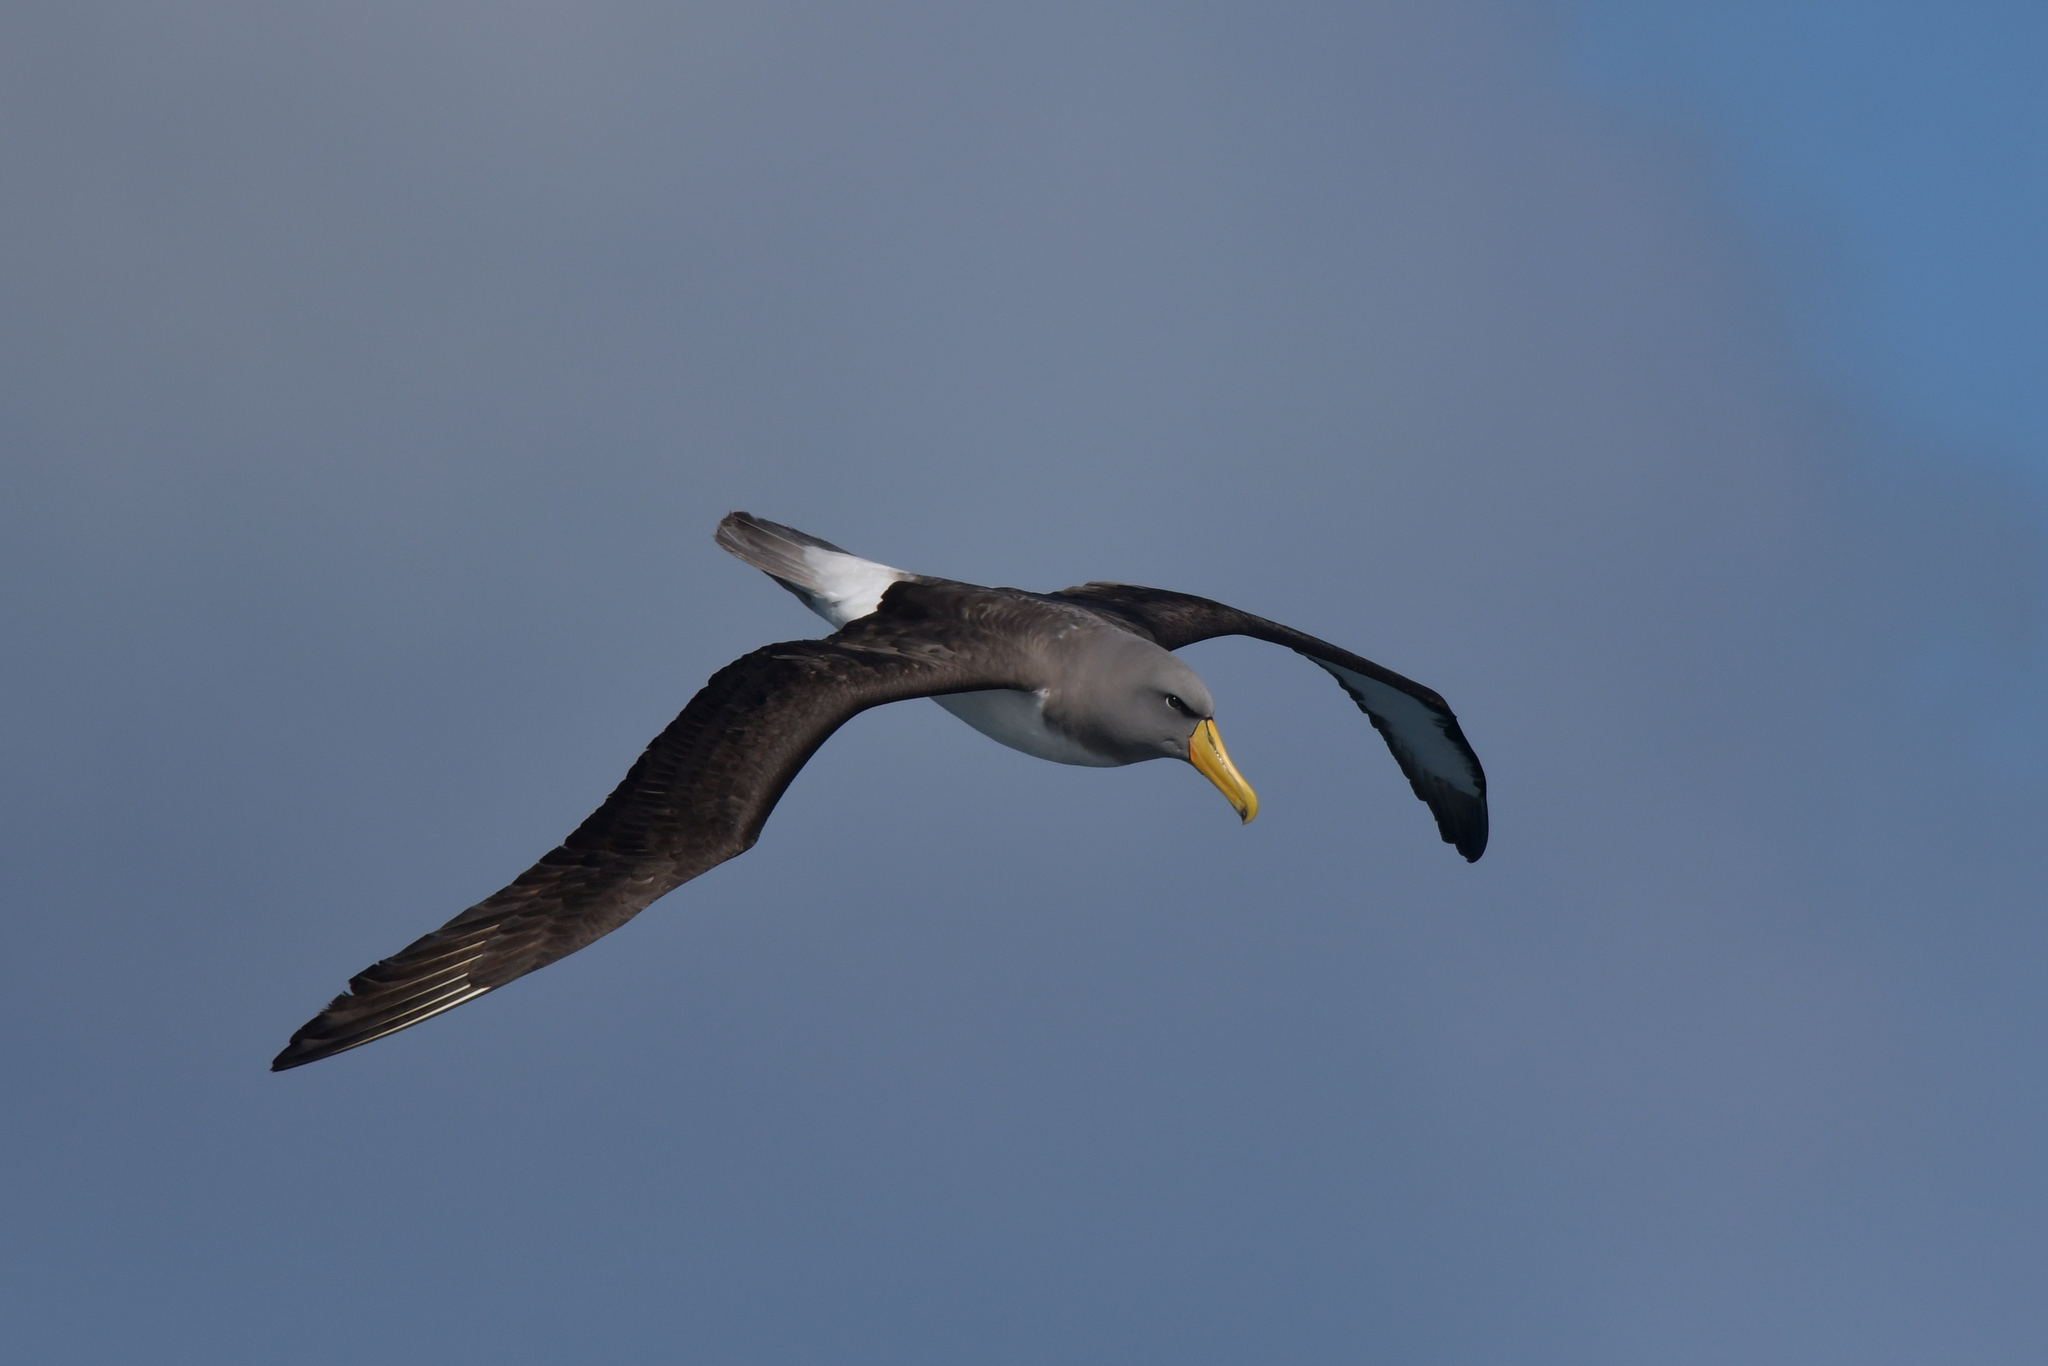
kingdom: Animalia
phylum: Chordata
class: Aves
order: Procellariiformes
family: Diomedeidae
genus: Thalassarche
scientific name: Thalassarche eremita
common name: Chatham albatross
